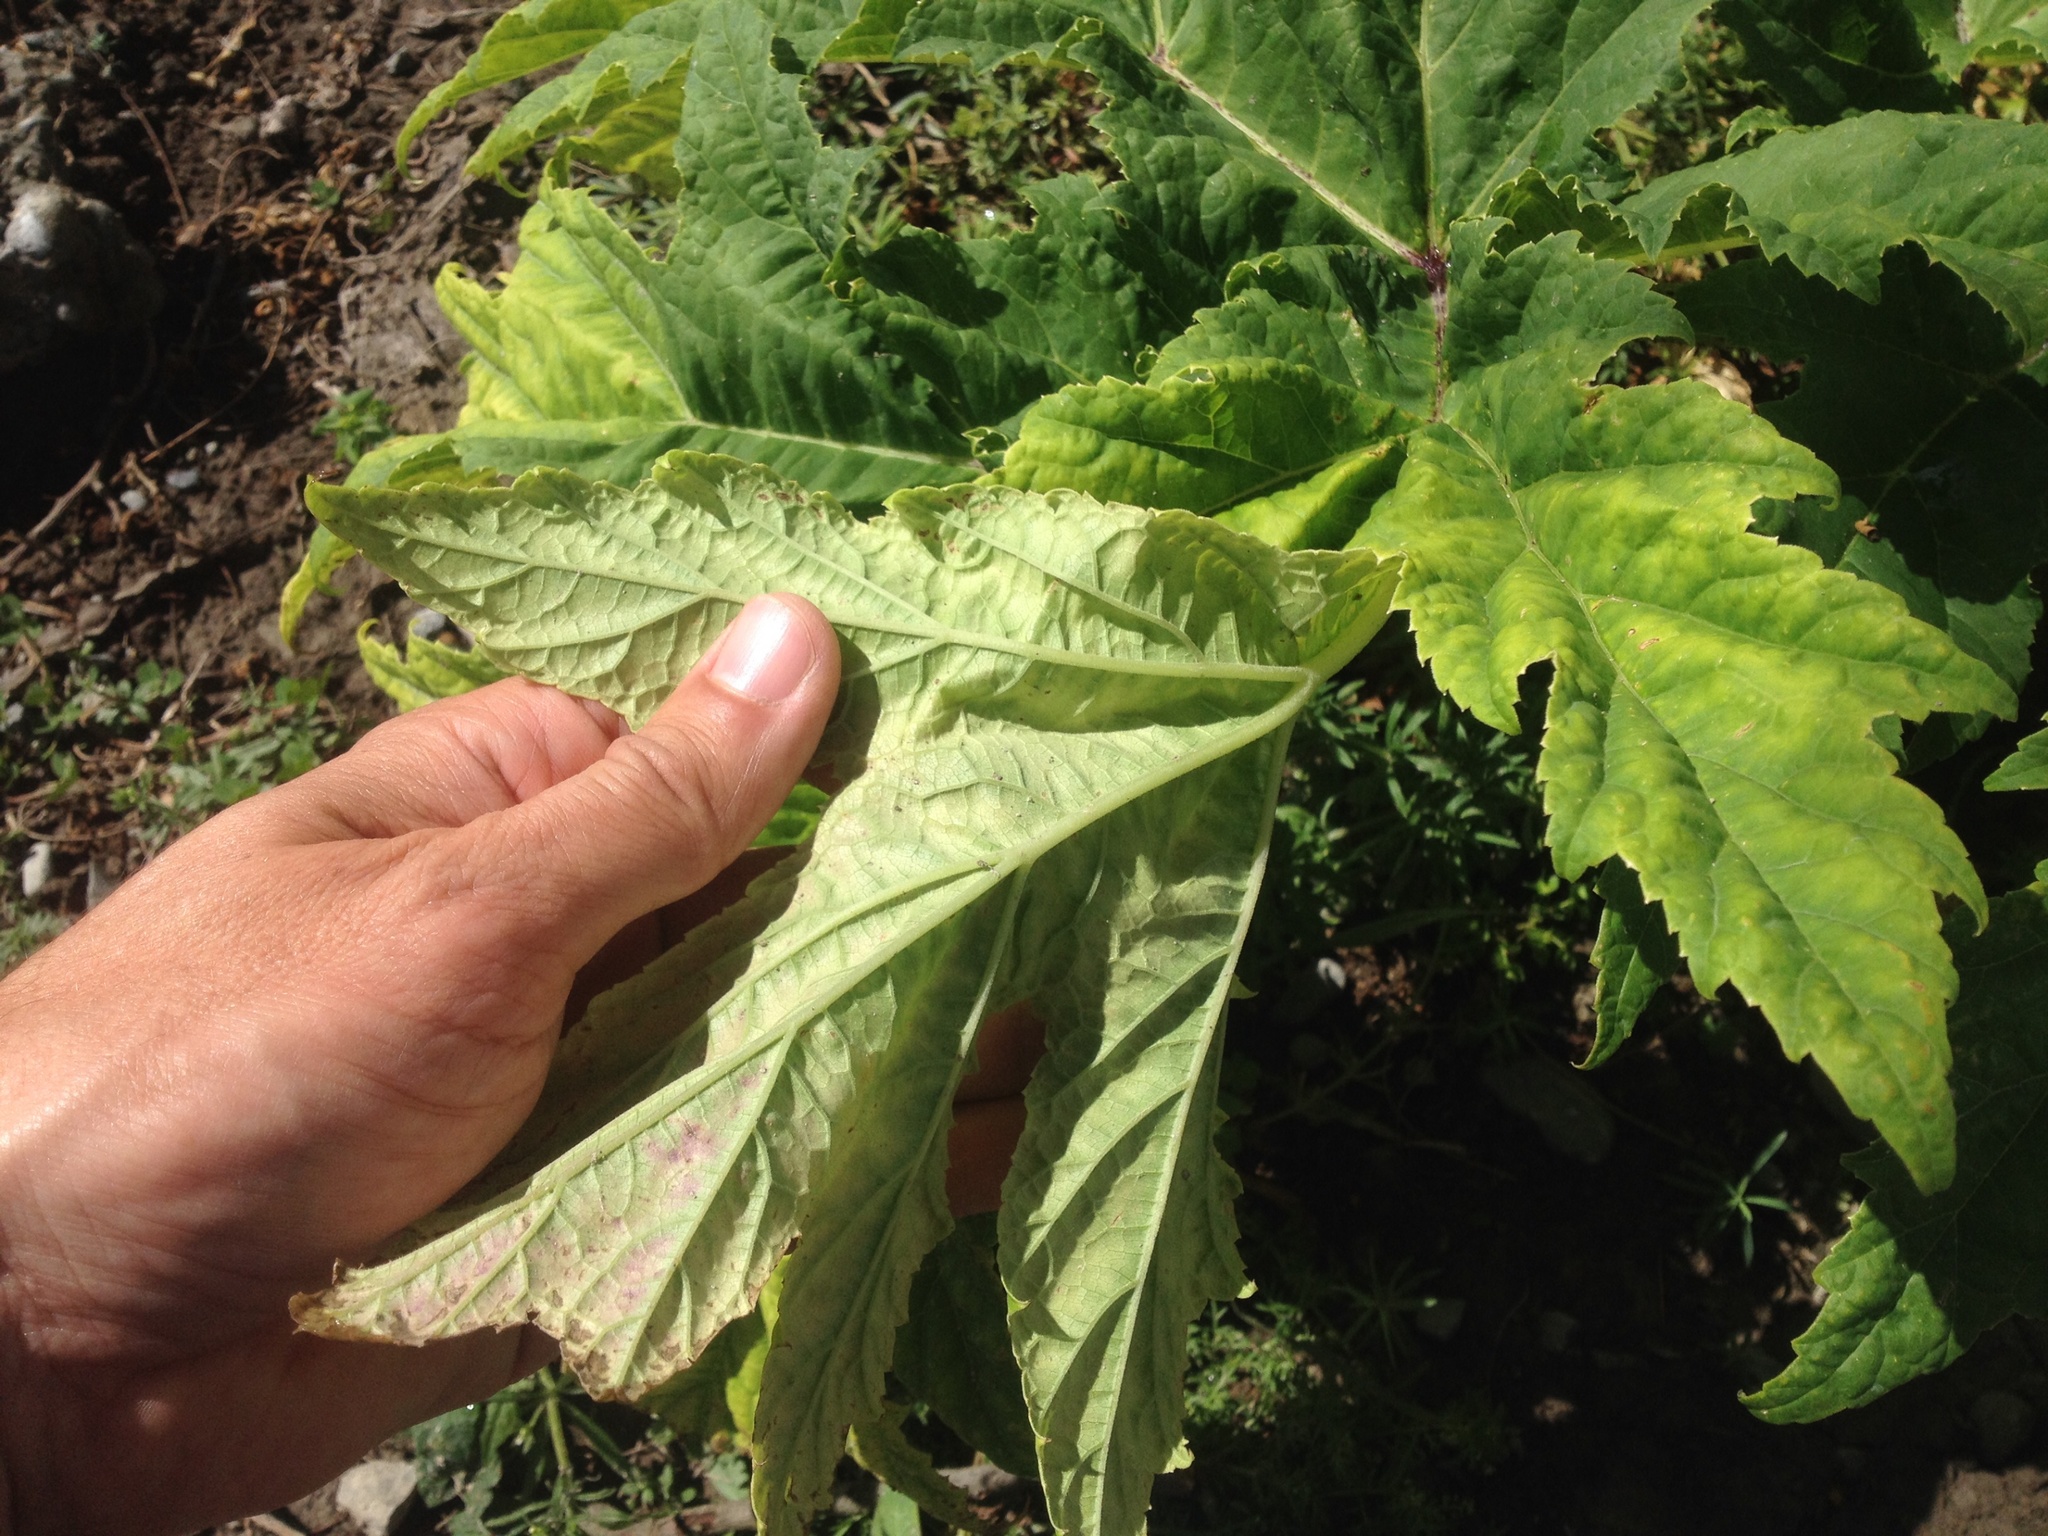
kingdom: Plantae
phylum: Tracheophyta
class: Magnoliopsida
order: Apiales
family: Apiaceae
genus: Heracleum
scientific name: Heracleum mantegazzianum
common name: Giant hogweed
